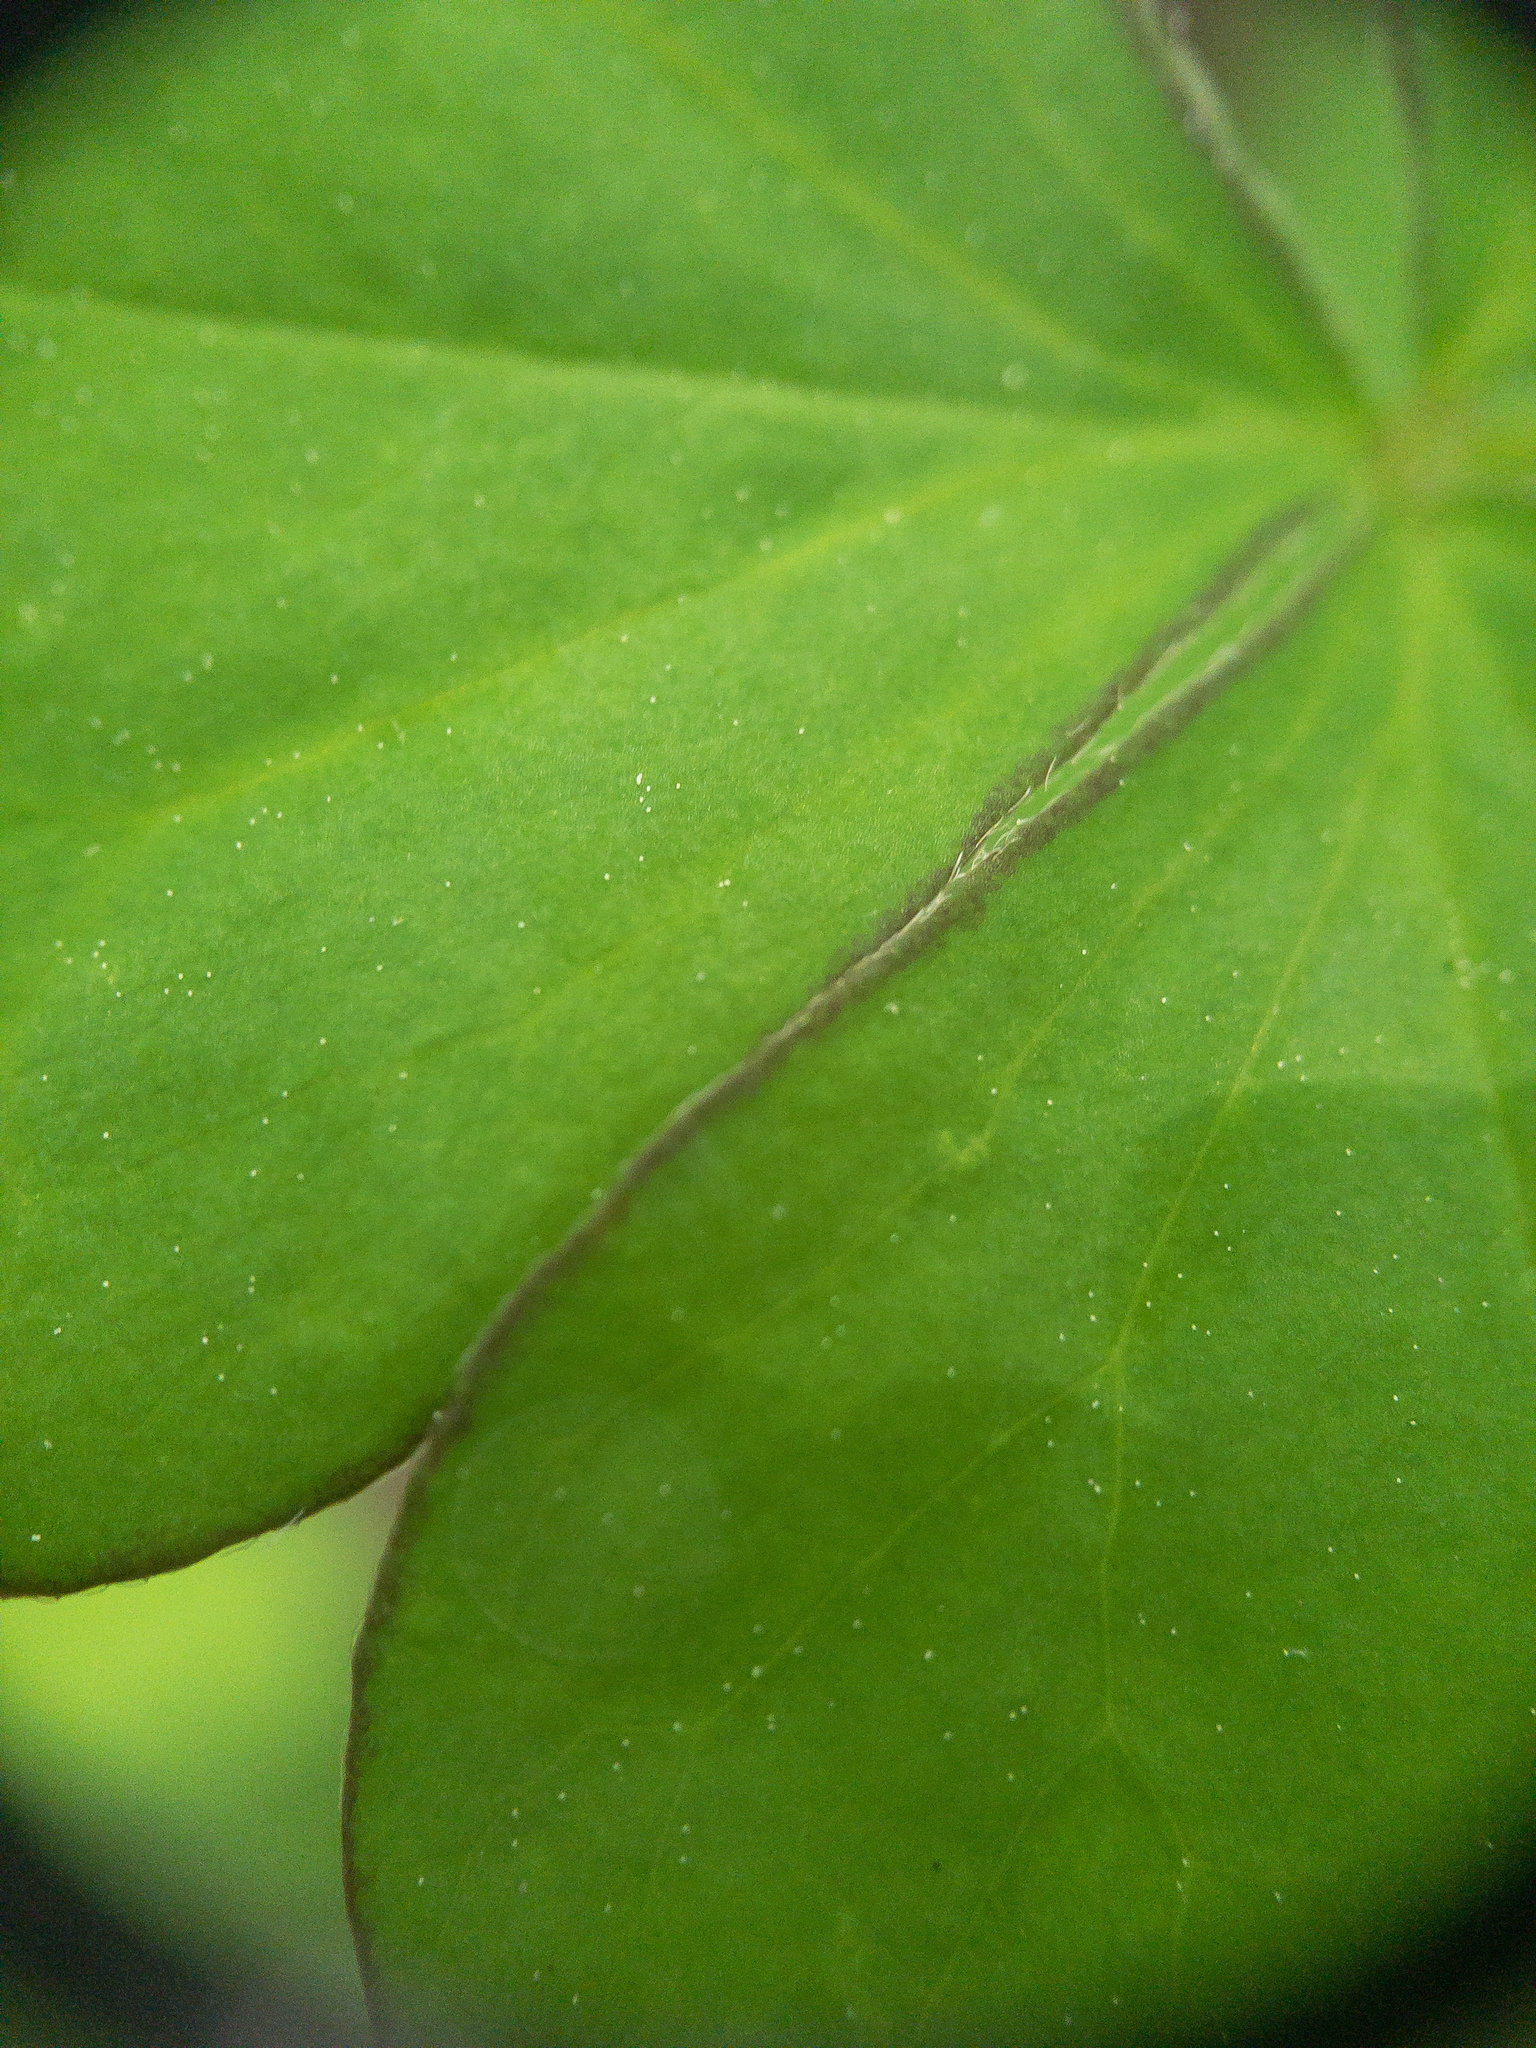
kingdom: Plantae
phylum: Tracheophyta
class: Magnoliopsida
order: Oxalidales
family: Oxalidaceae
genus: Oxalis
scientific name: Oxalis grandis
